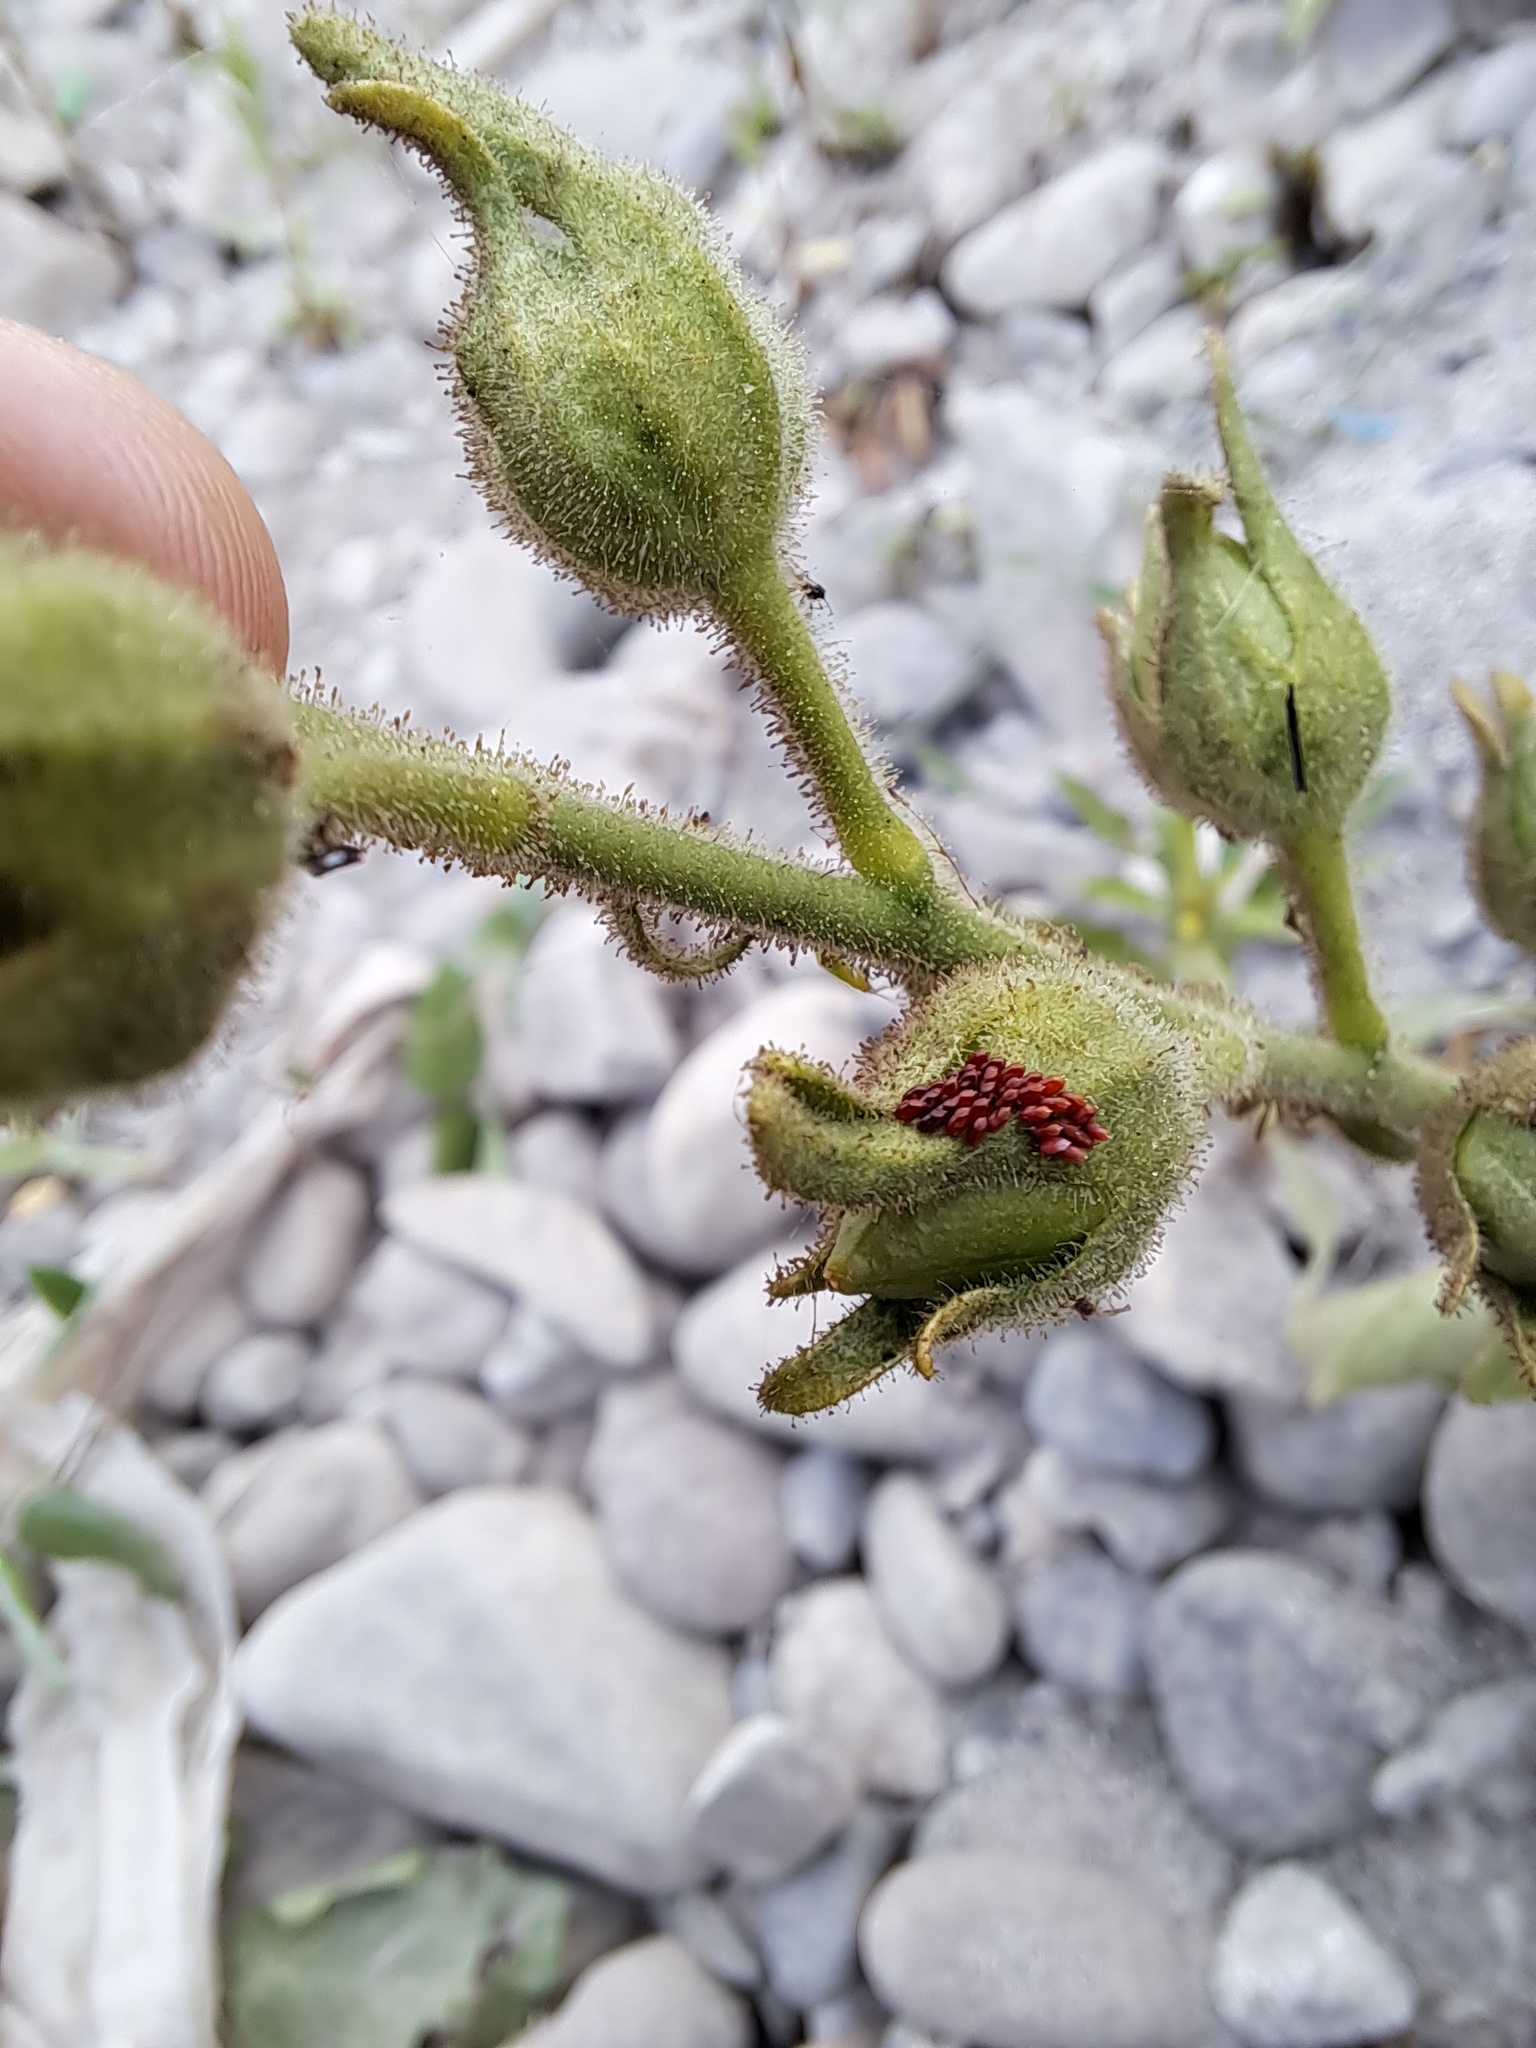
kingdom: Plantae
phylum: Tracheophyta
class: Magnoliopsida
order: Solanales
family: Solanaceae
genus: Nicotiana
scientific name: Nicotiana glutinosa
